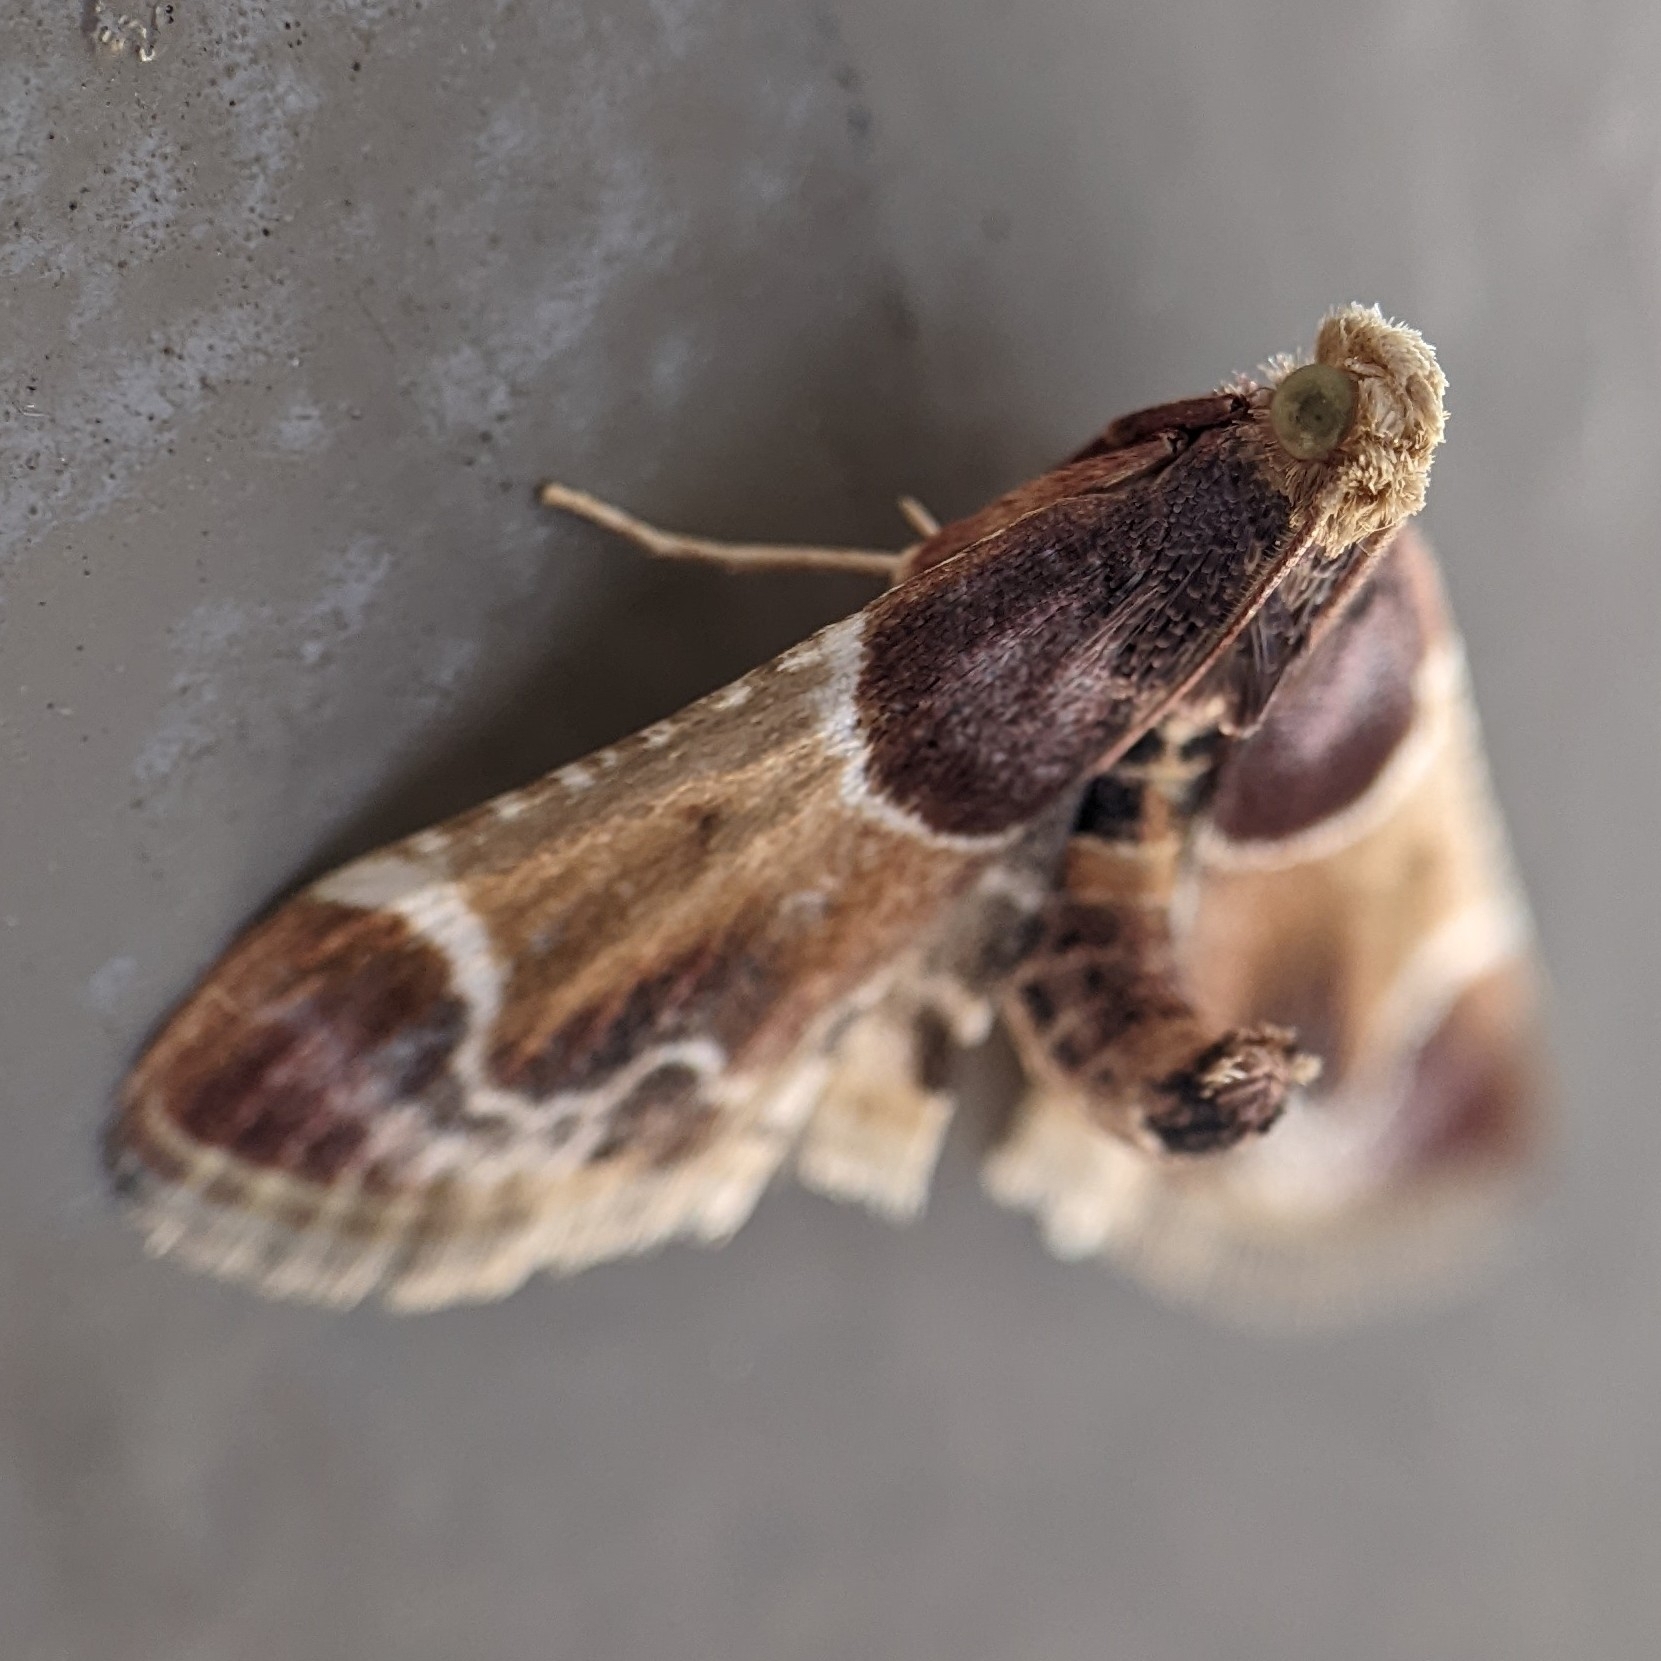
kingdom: Animalia
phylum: Arthropoda
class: Insecta
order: Lepidoptera
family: Pyralidae
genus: Pyralis
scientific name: Pyralis farinalis
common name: Meal moth
